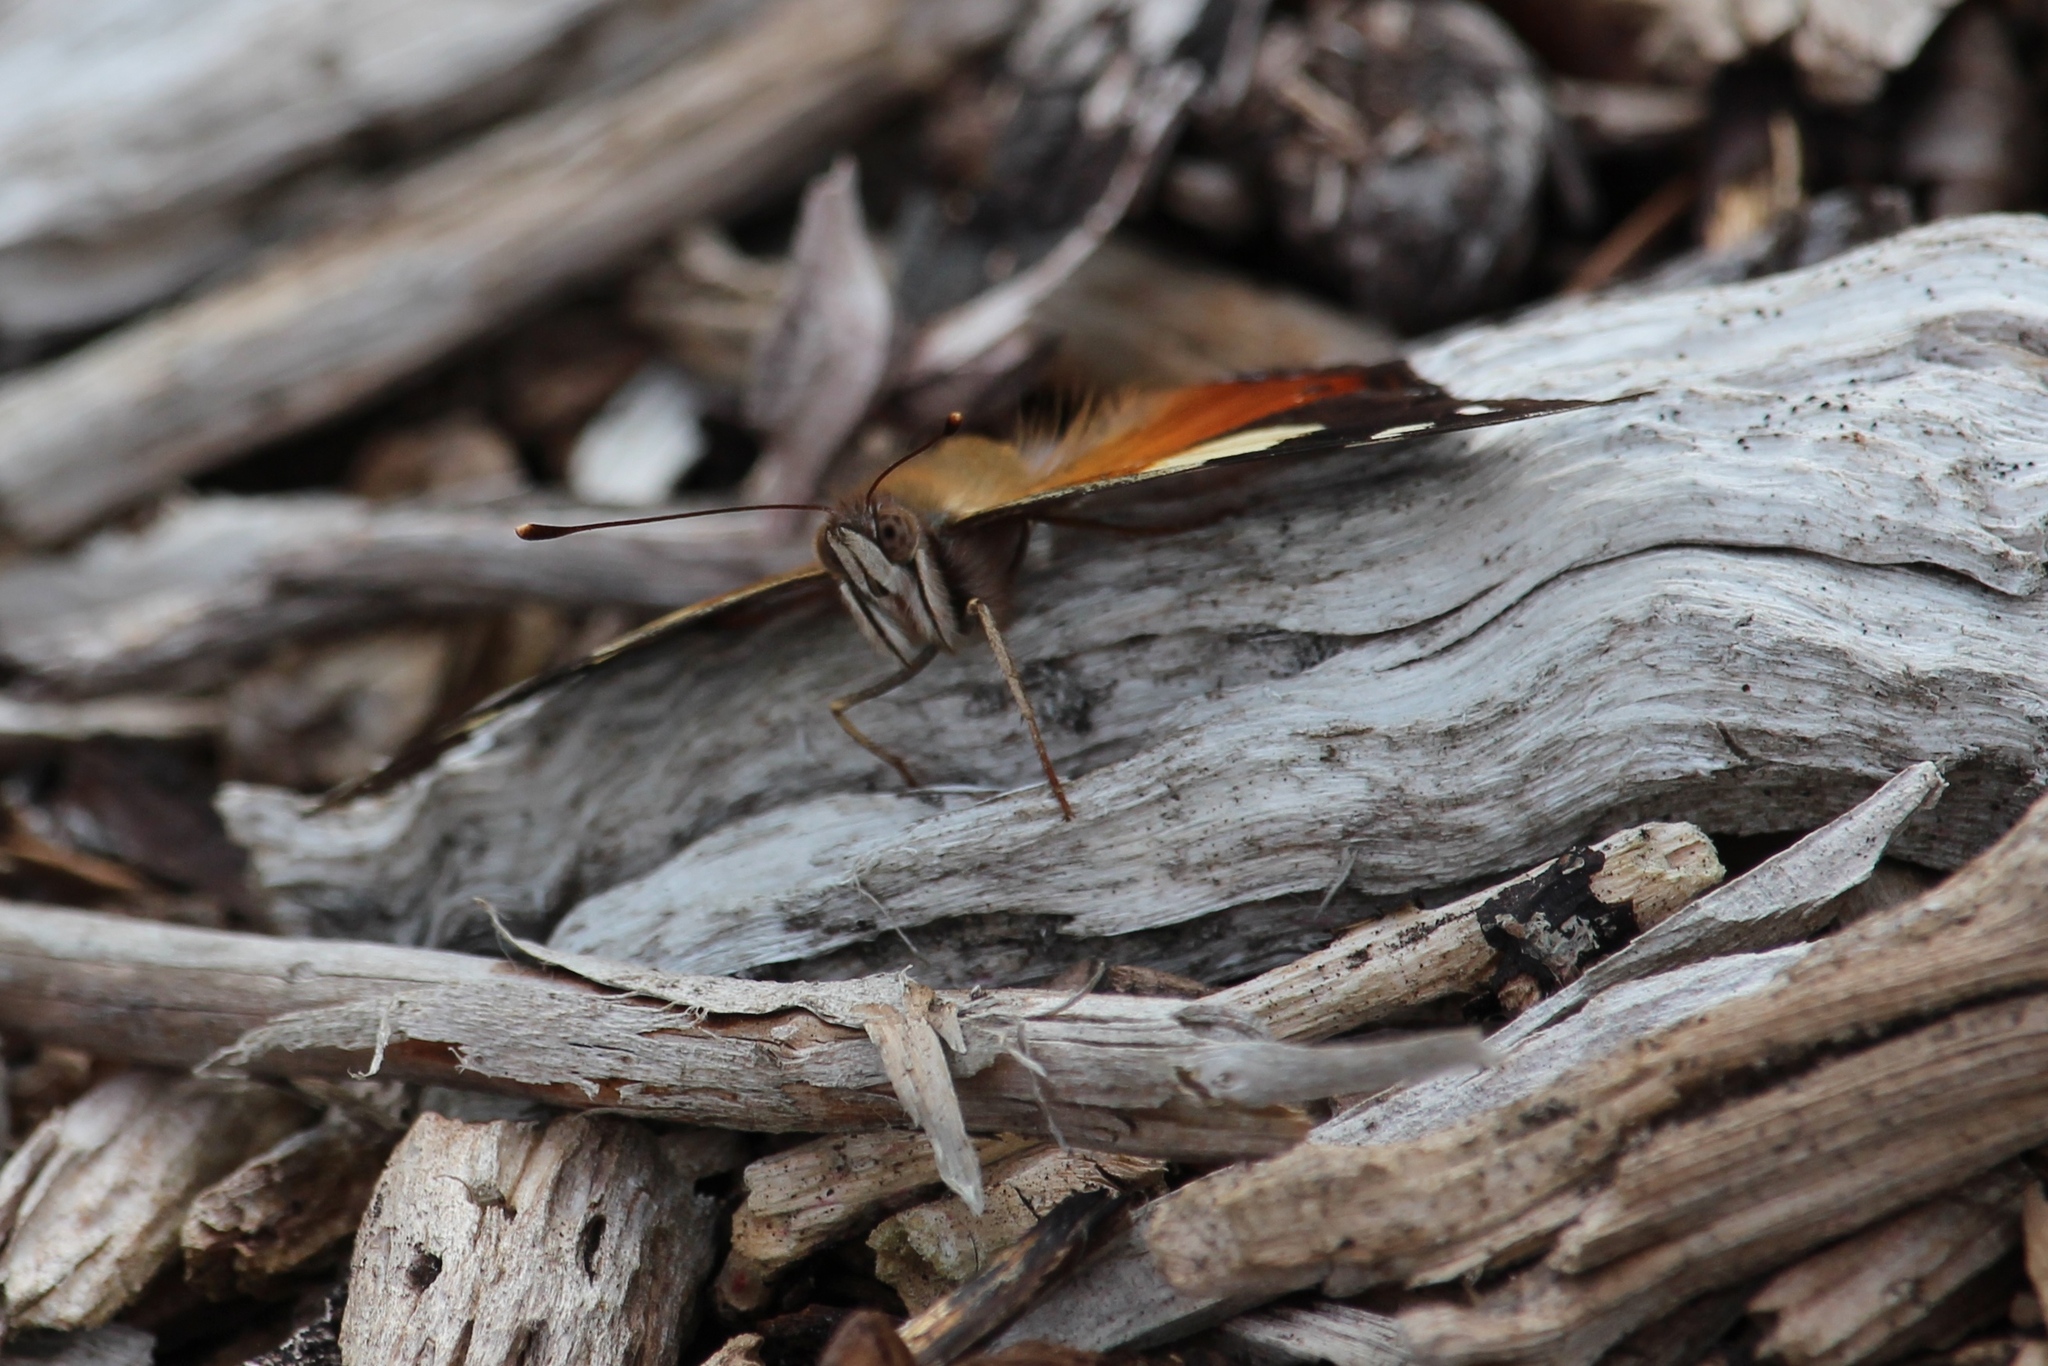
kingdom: Animalia
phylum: Arthropoda
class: Insecta
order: Lepidoptera
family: Nymphalidae
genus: Vanessa
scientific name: Vanessa itea
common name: Yellow admiral
